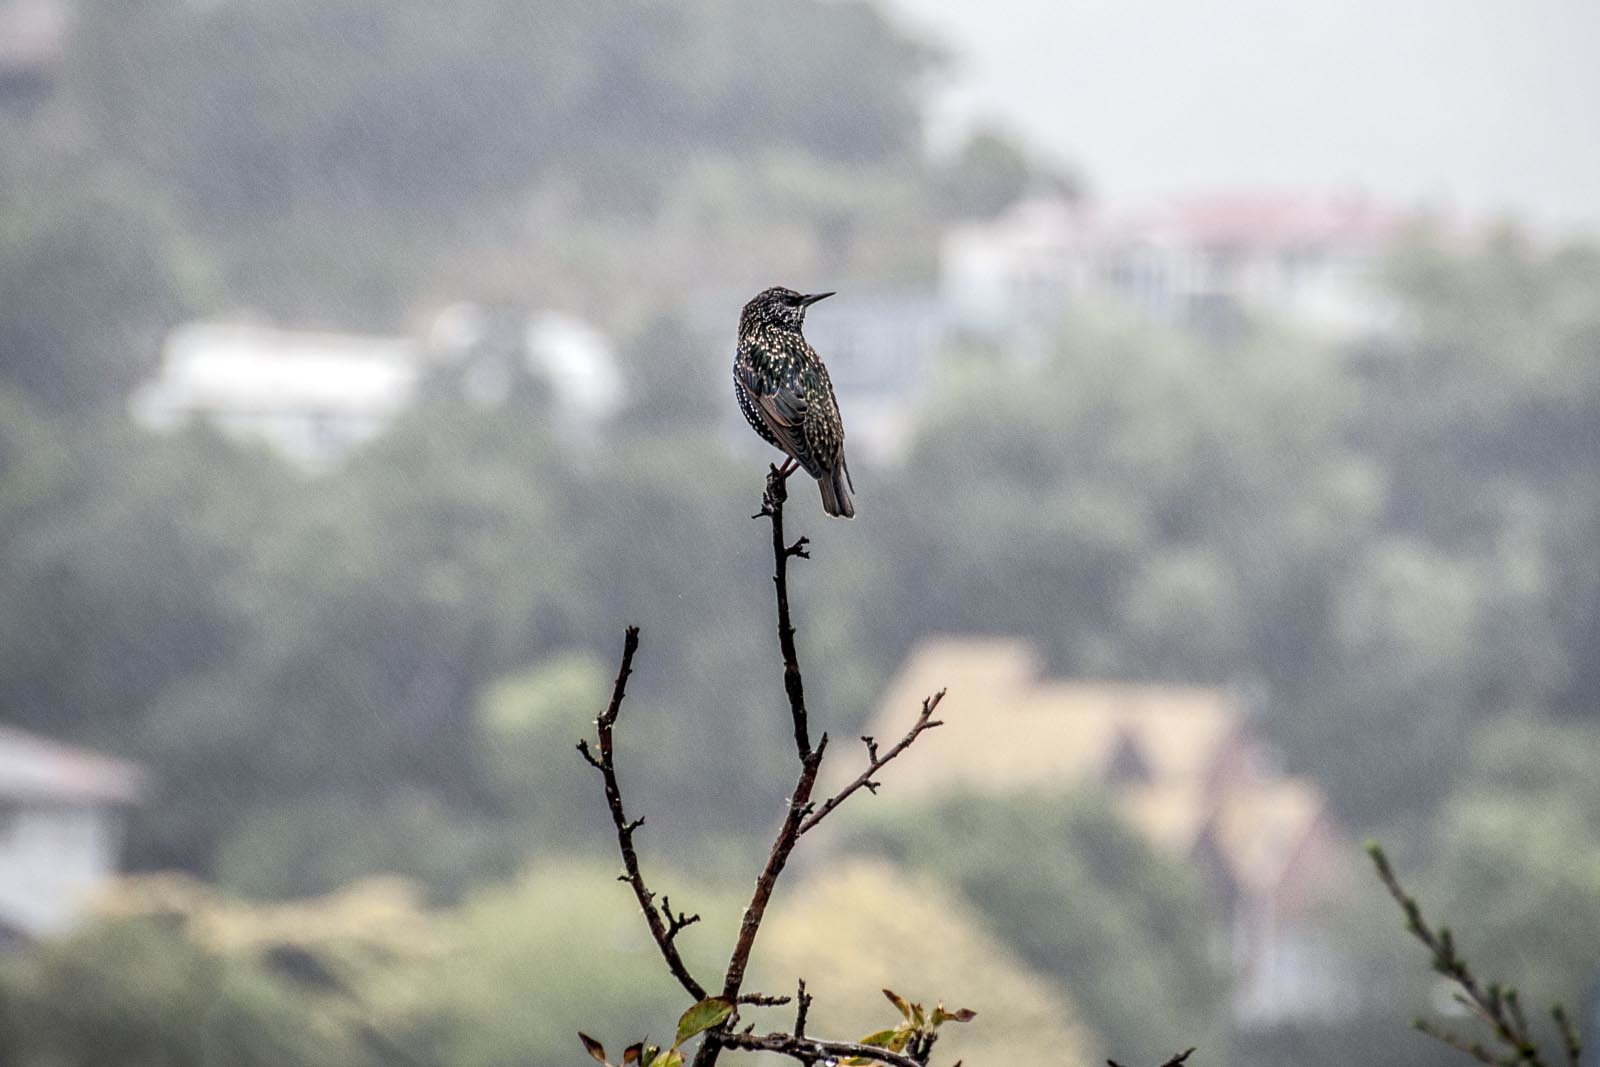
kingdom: Animalia
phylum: Chordata
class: Aves
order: Passeriformes
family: Sturnidae
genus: Sturnus
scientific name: Sturnus vulgaris
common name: Common starling
